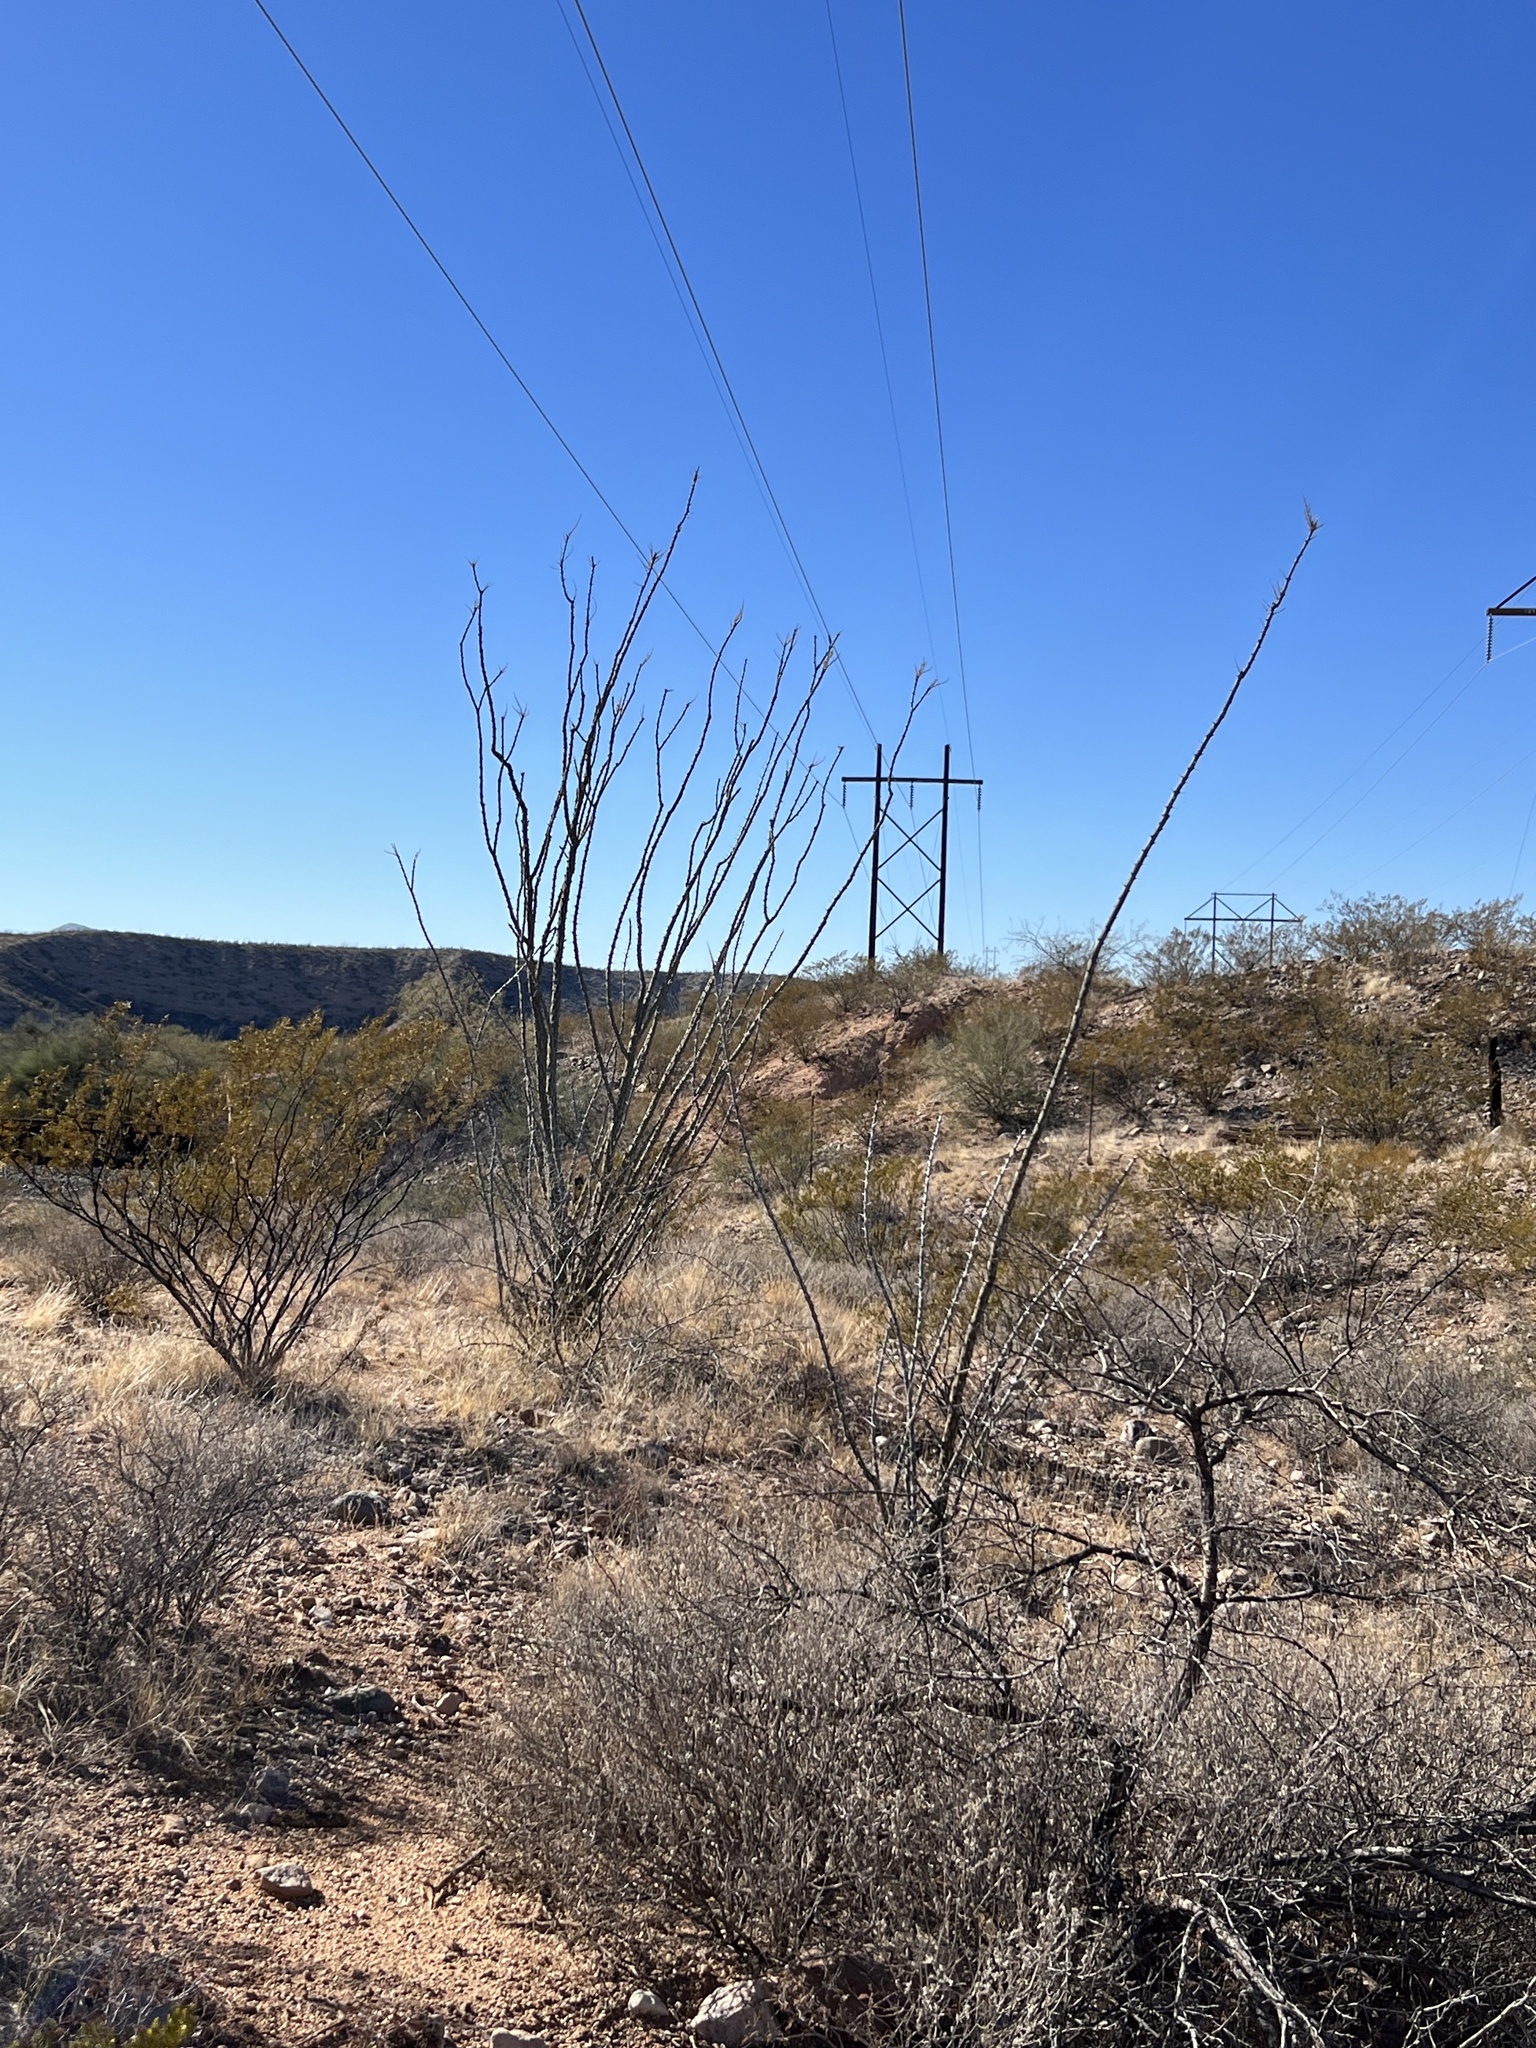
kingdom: Plantae
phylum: Tracheophyta
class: Magnoliopsida
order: Ericales
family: Fouquieriaceae
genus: Fouquieria
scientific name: Fouquieria splendens
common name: Vine-cactus
